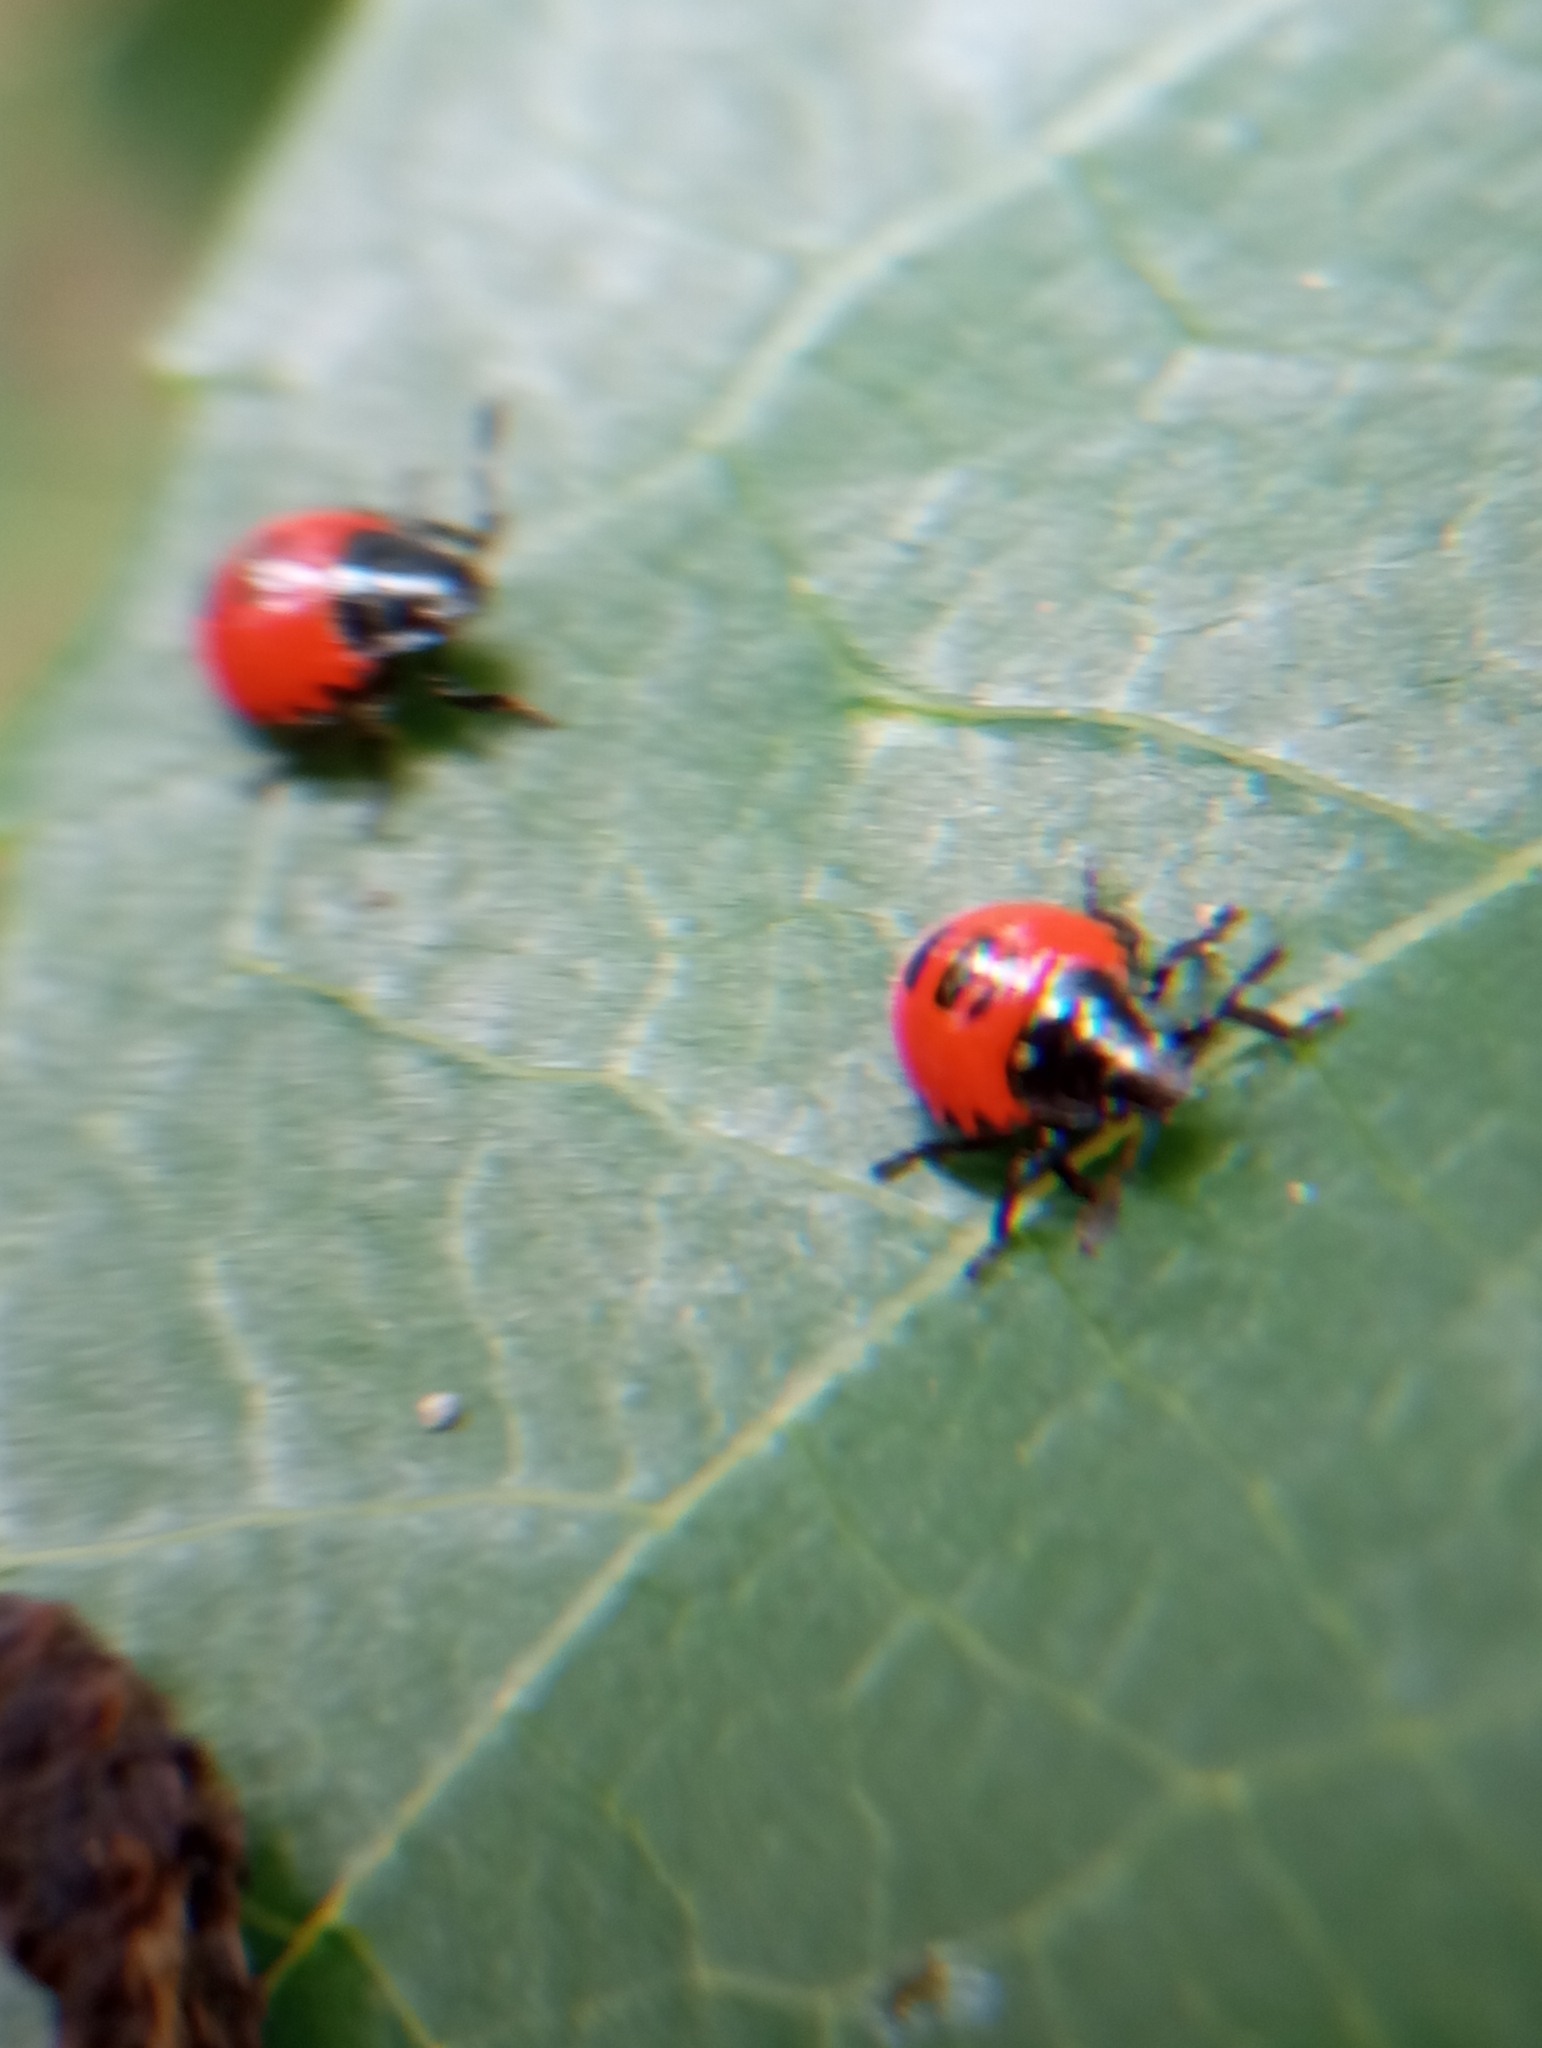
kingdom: Animalia
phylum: Arthropoda
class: Insecta
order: Hemiptera
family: Pentatomidae
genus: Brontocoris
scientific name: Brontocoris
